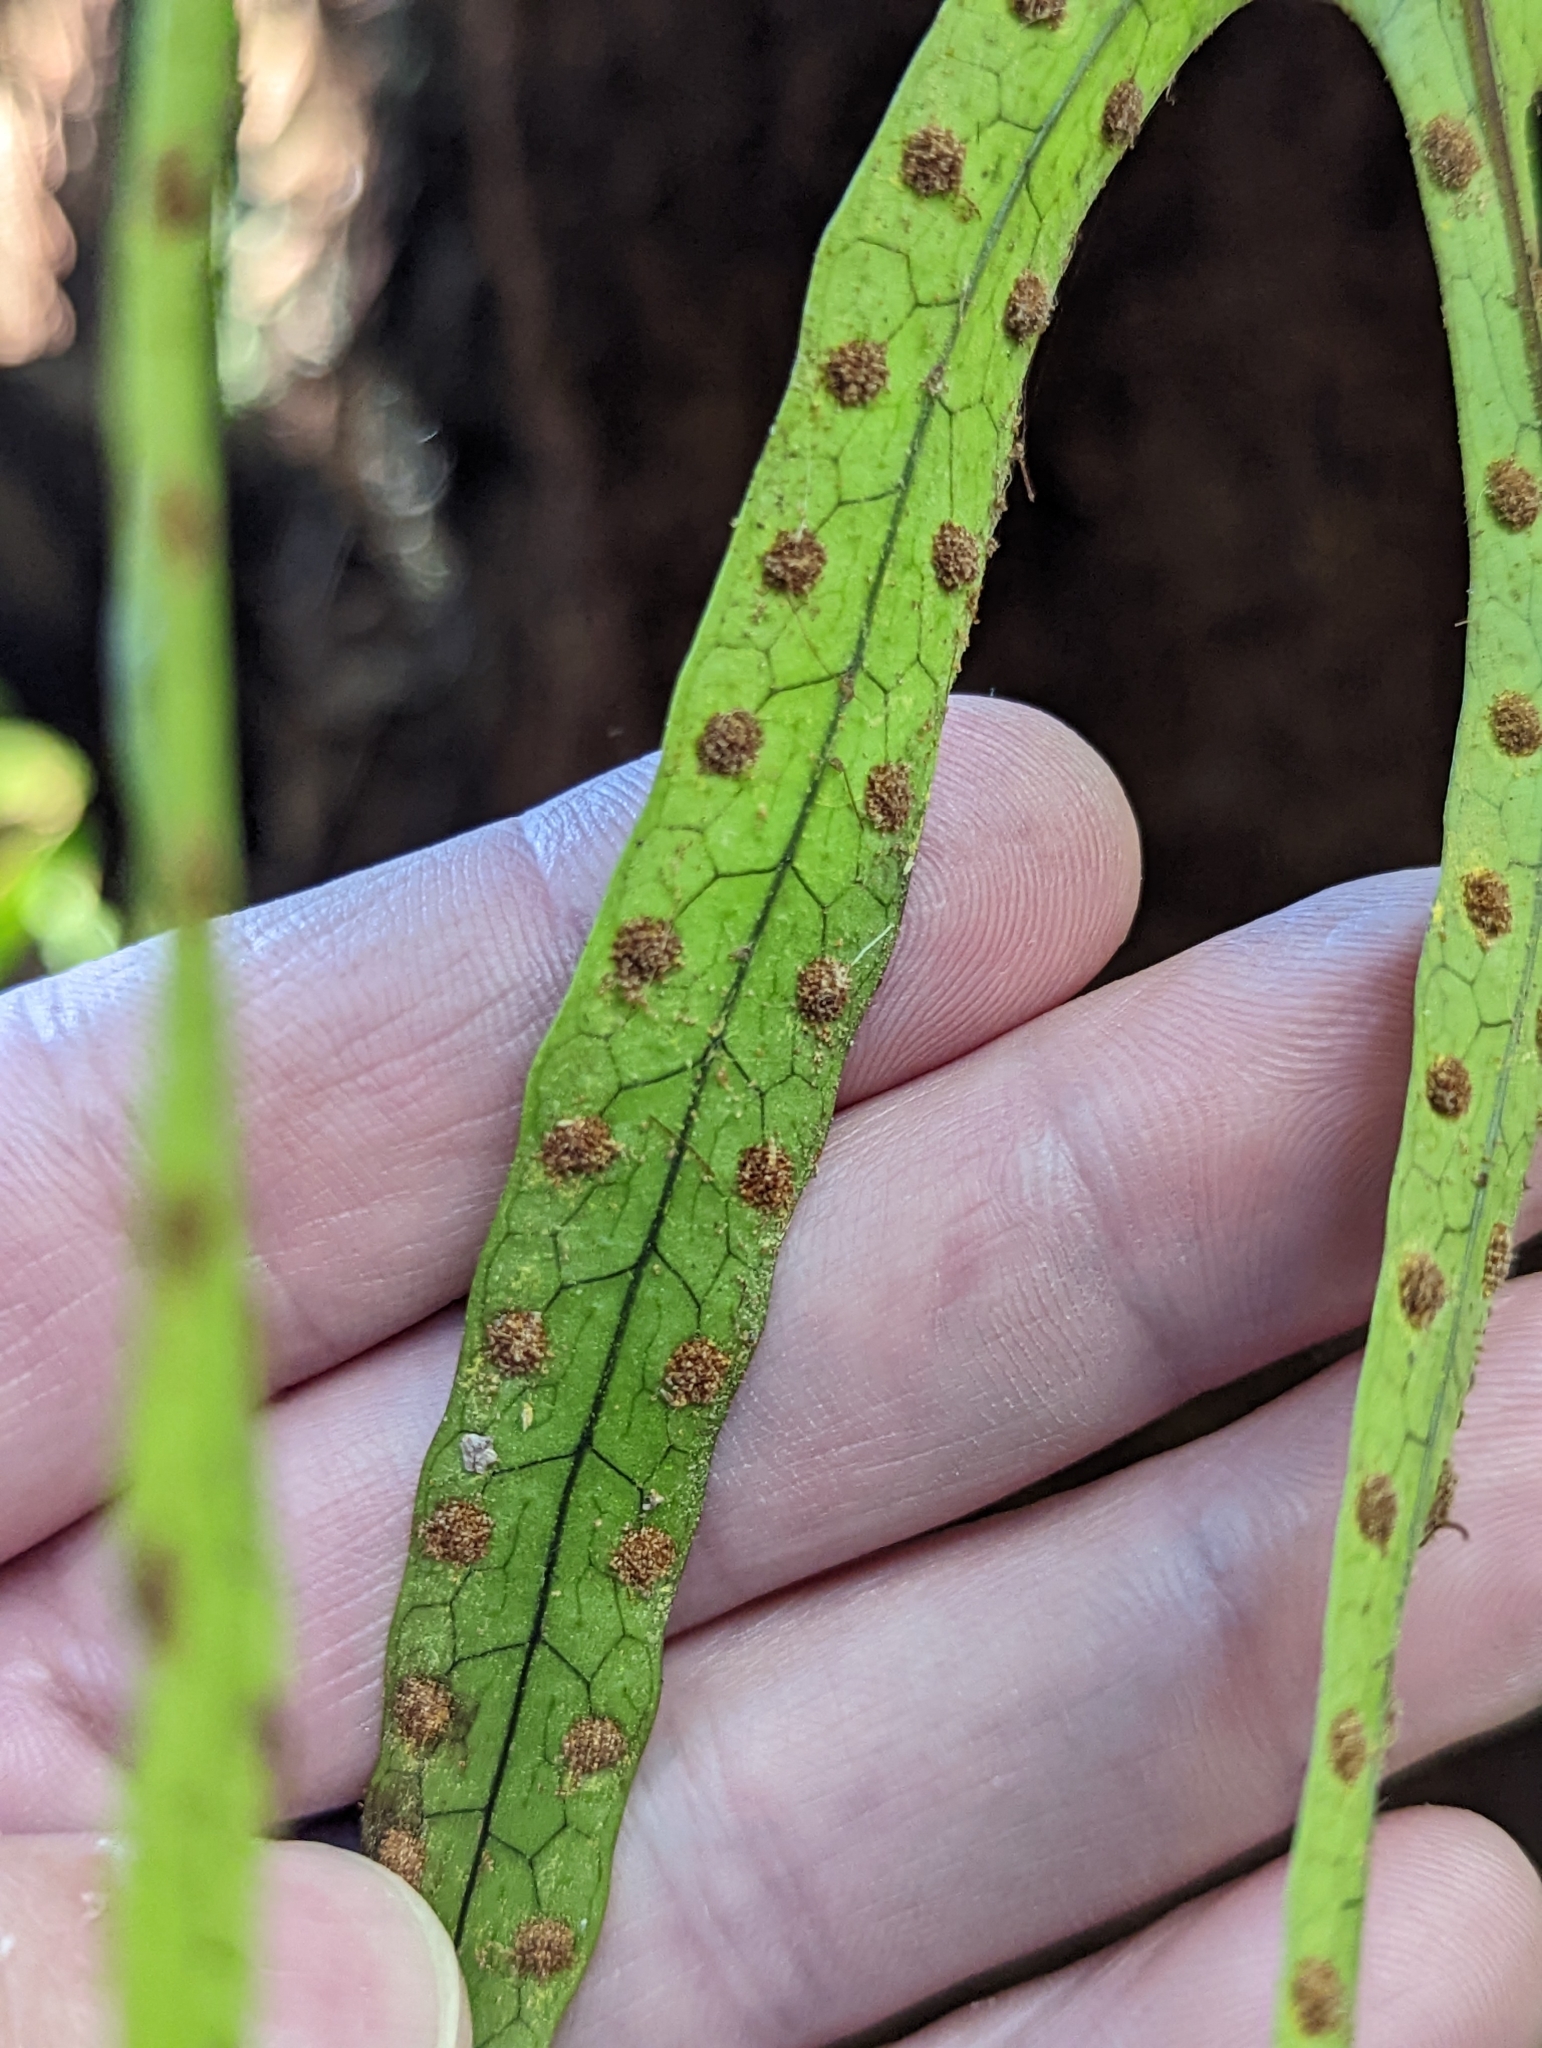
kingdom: Plantae
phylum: Tracheophyta
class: Polypodiopsida
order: Polypodiales
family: Polypodiaceae
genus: Lecanopteris
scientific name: Lecanopteris pustulata
